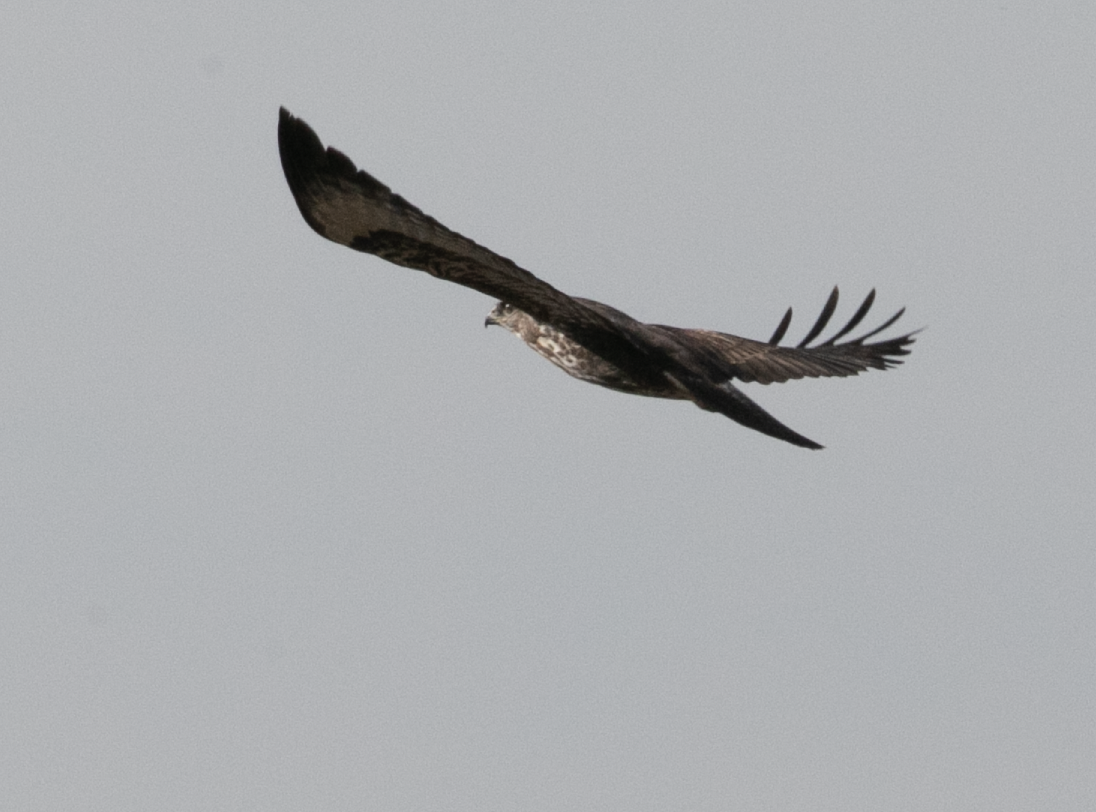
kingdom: Animalia
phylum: Chordata
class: Aves
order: Accipitriformes
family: Accipitridae
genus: Buteo
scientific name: Buteo buteo
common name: Common buzzard
